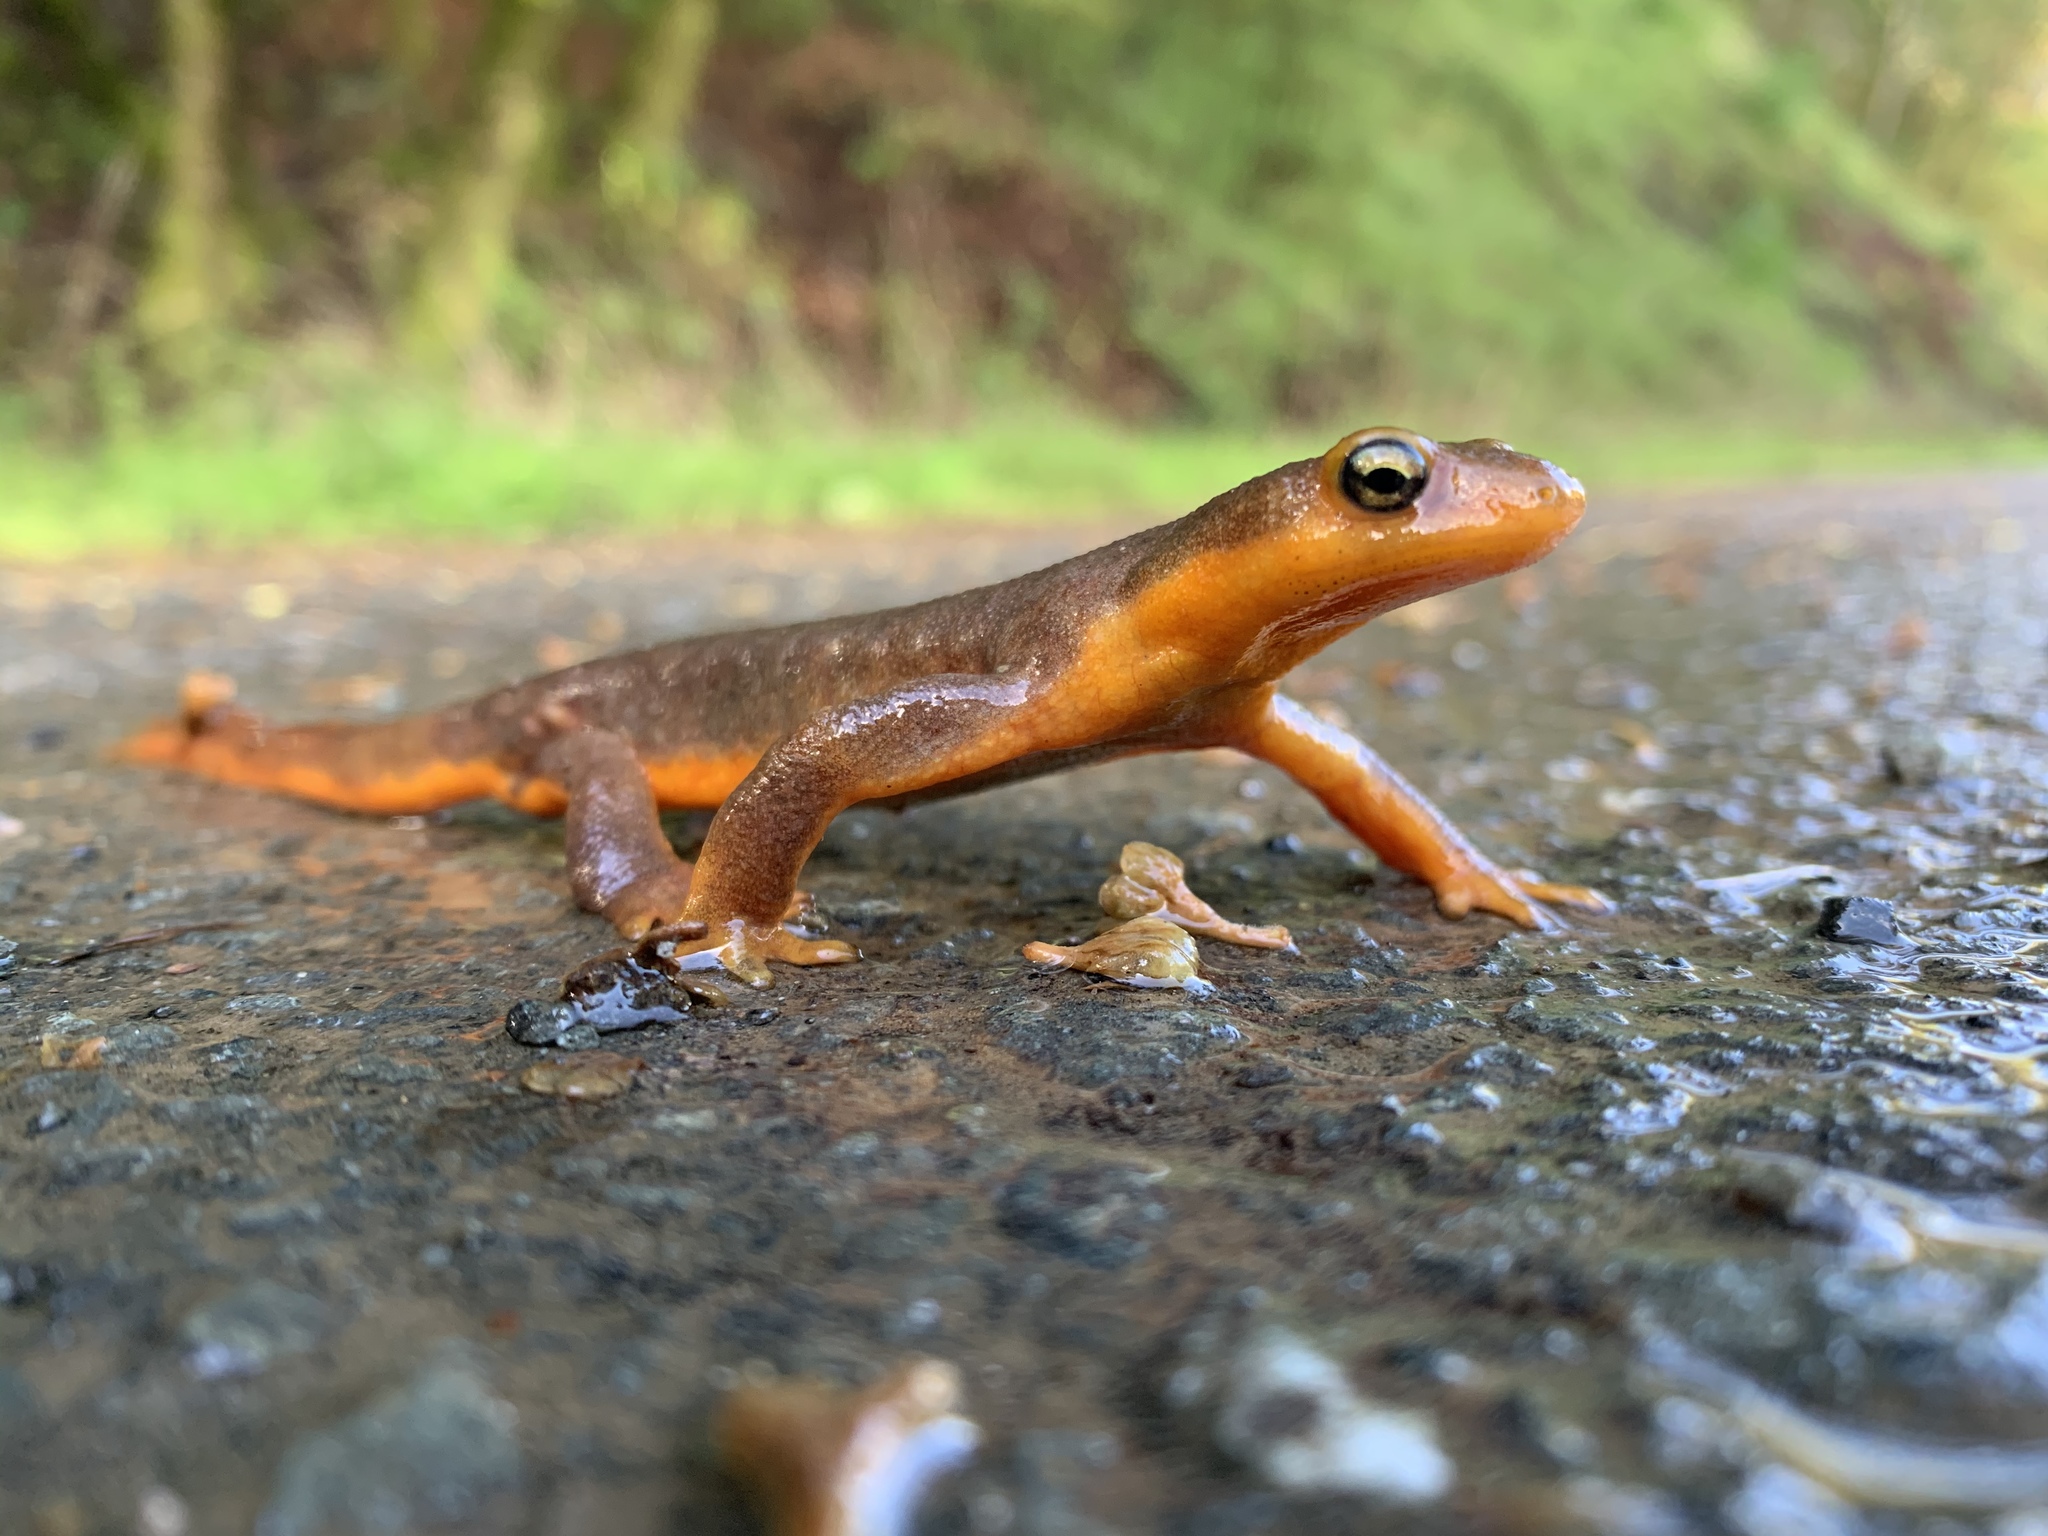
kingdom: Animalia
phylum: Chordata
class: Amphibia
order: Caudata
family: Salamandridae
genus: Taricha
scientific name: Taricha torosa
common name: California newt
